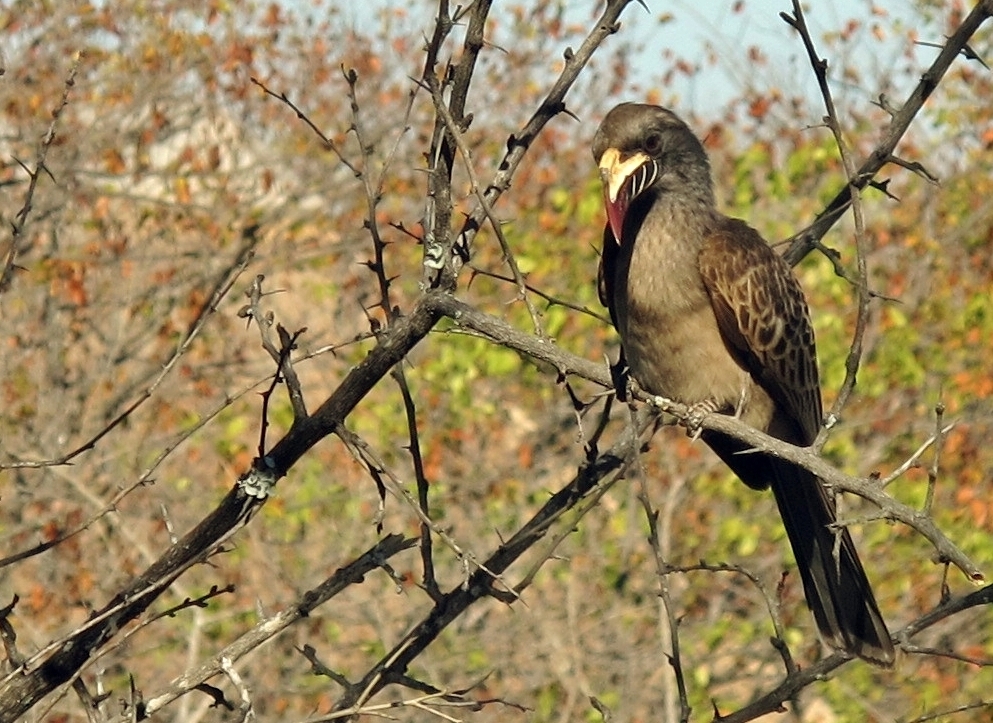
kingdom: Animalia
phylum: Chordata
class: Aves
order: Bucerotiformes
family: Bucerotidae
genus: Lophoceros
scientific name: Lophoceros nasutus
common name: African grey hornbill
